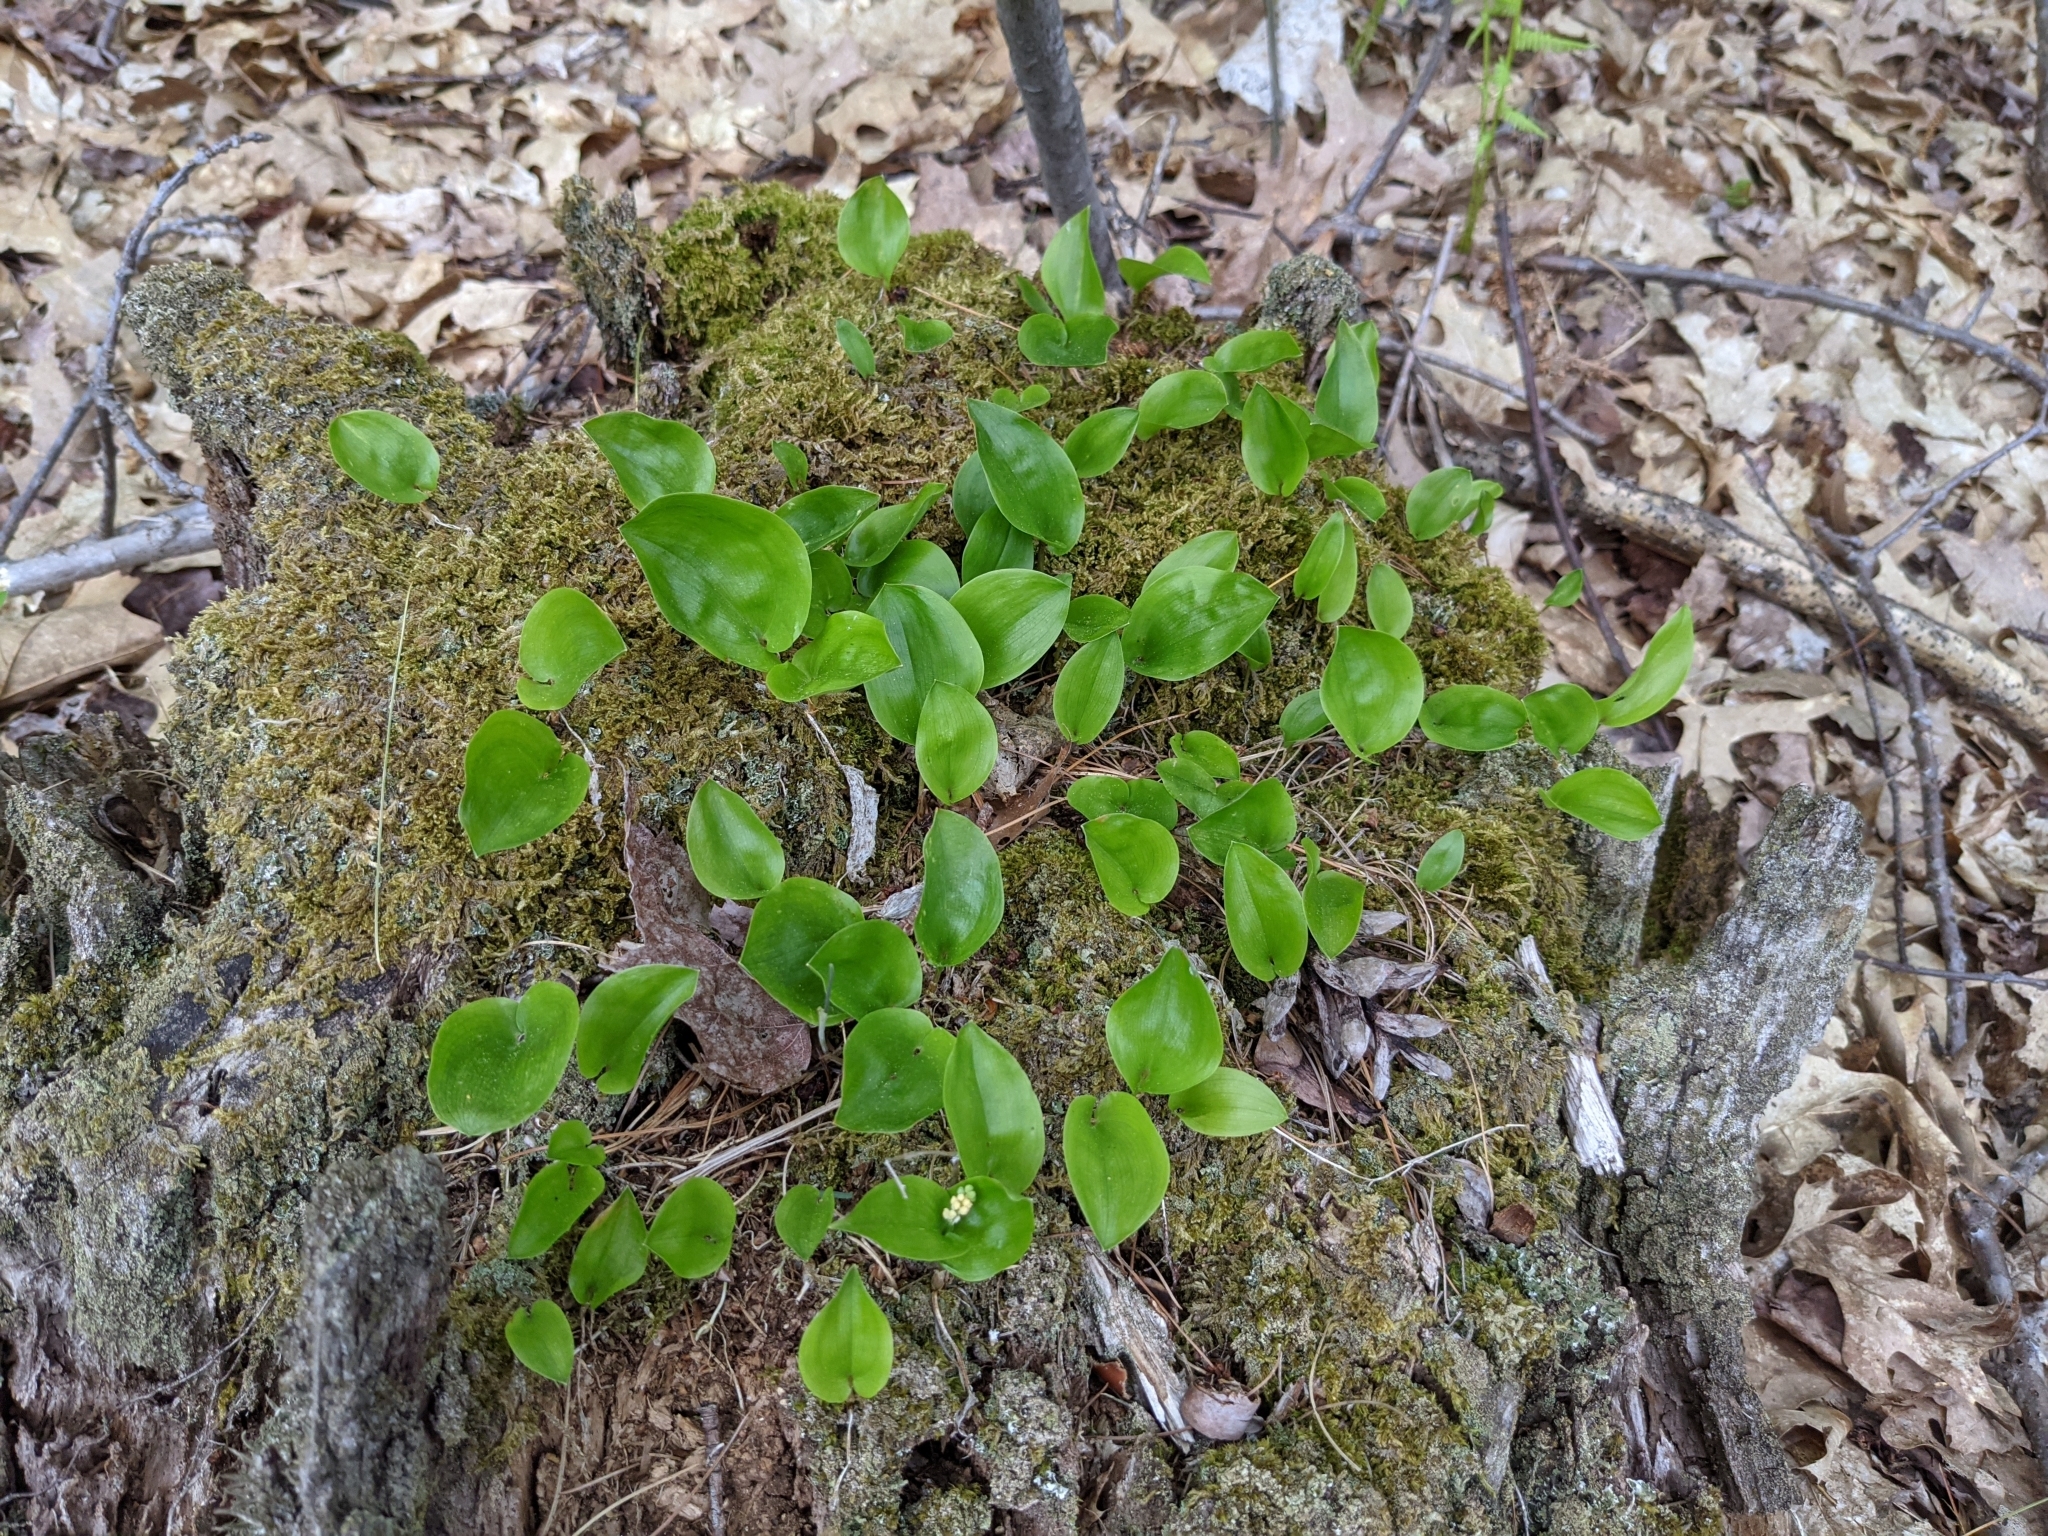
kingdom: Plantae
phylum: Tracheophyta
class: Liliopsida
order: Asparagales
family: Asparagaceae
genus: Maianthemum
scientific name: Maianthemum canadense
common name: False lily-of-the-valley
